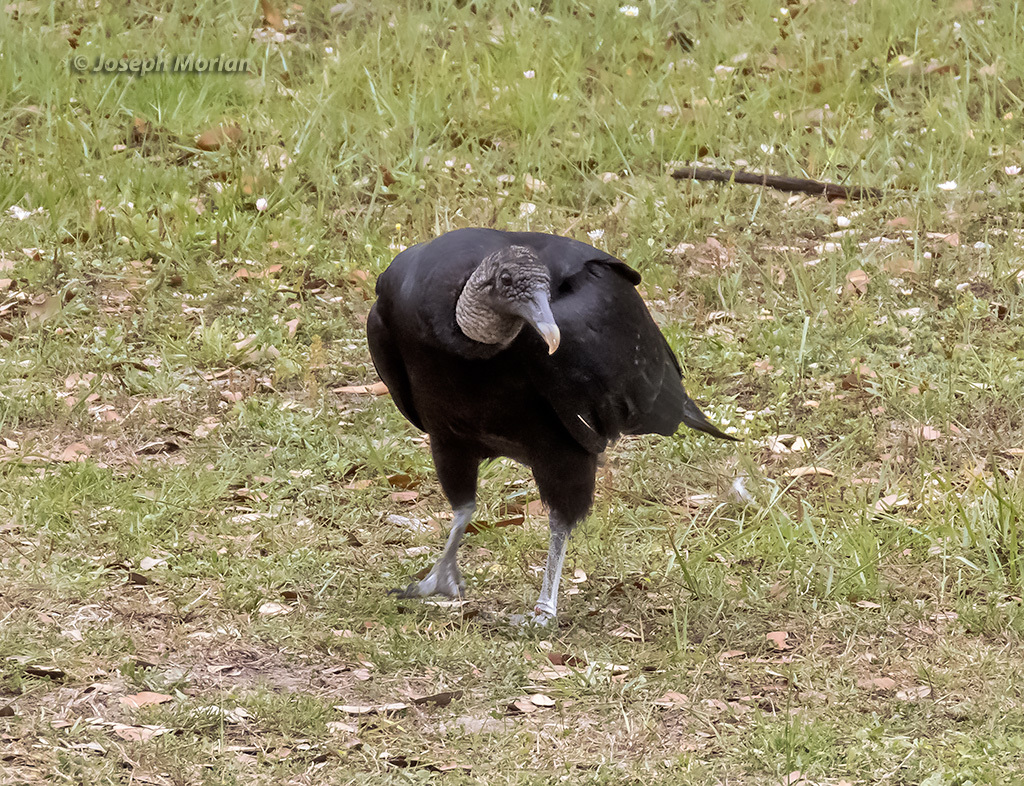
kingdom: Animalia
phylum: Chordata
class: Aves
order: Accipitriformes
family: Cathartidae
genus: Coragyps
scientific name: Coragyps atratus
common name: Black vulture
